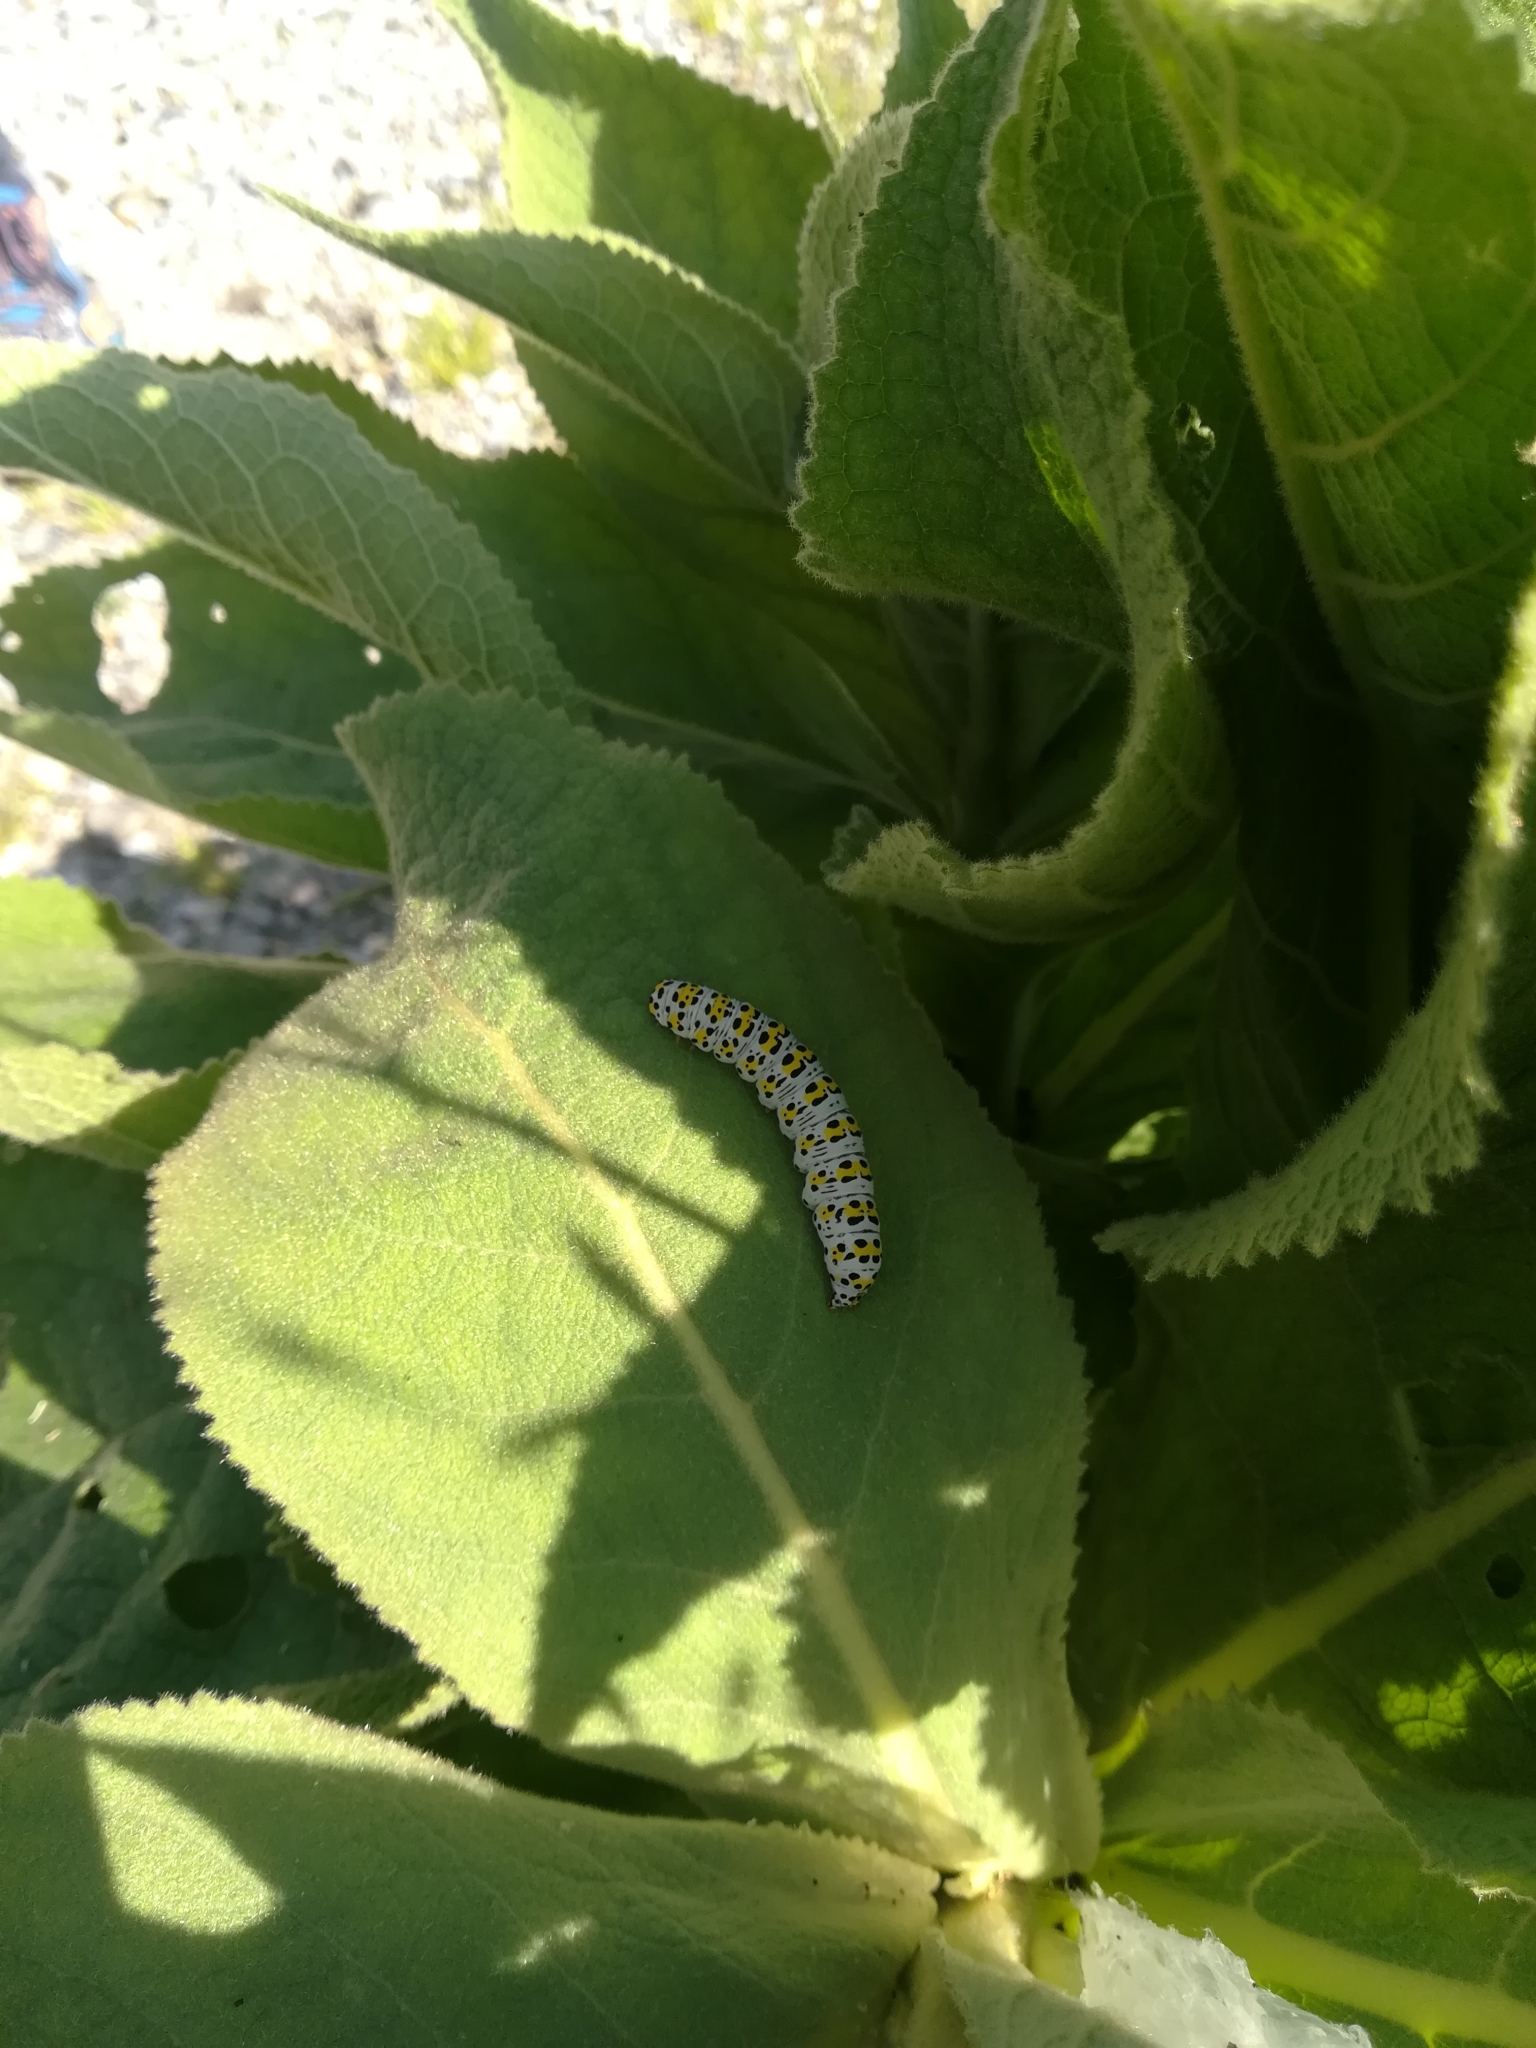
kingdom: Animalia
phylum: Arthropoda
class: Insecta
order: Lepidoptera
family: Noctuidae
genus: Cucullia
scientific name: Cucullia verbasci
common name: Mullein
